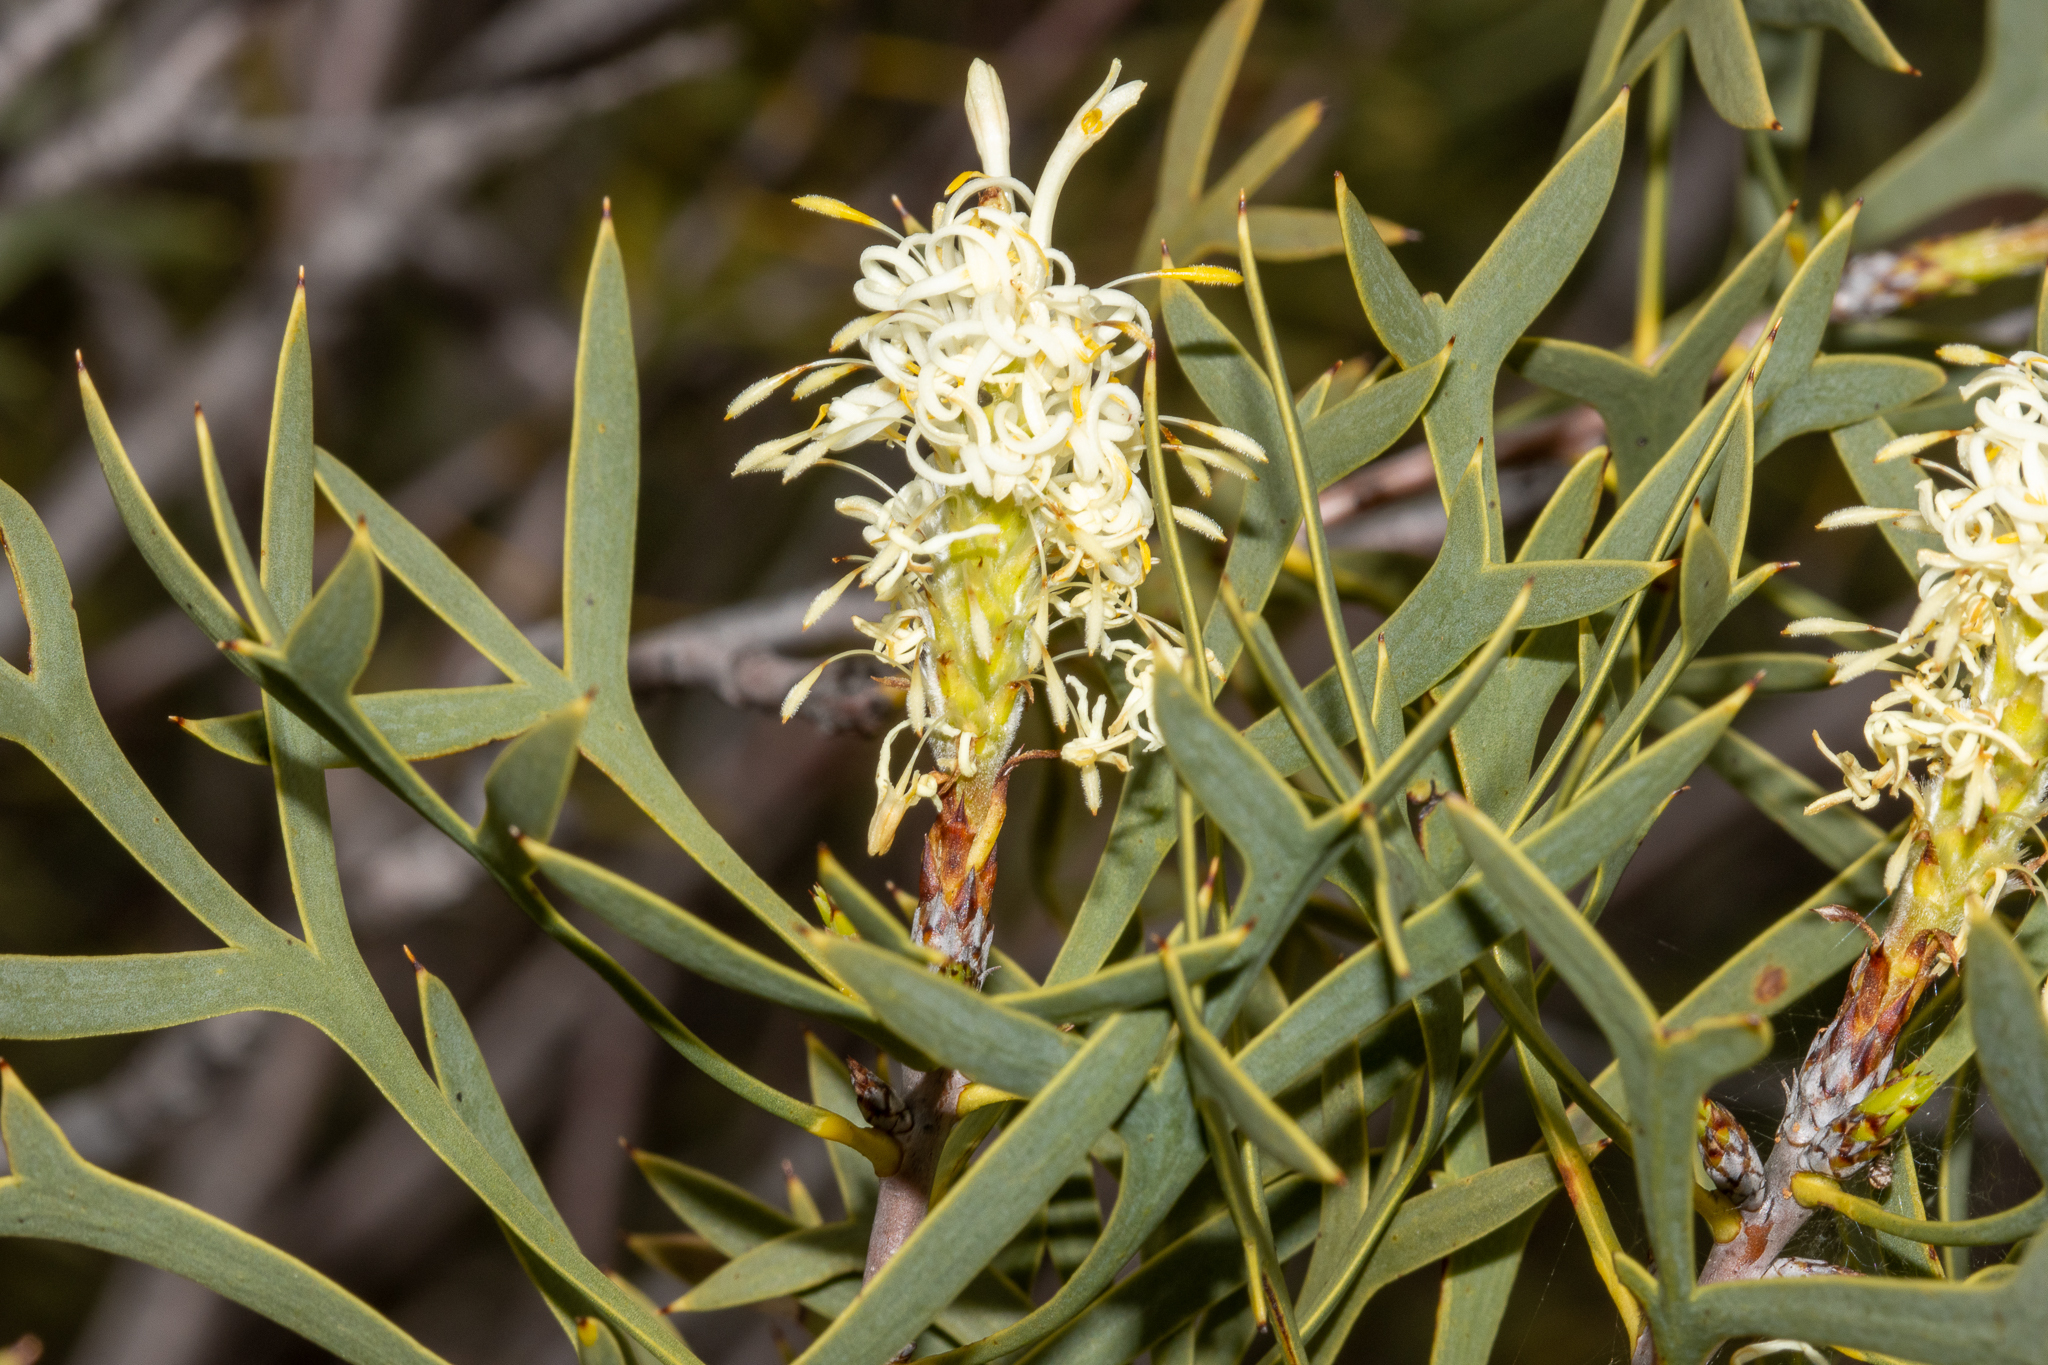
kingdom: Plantae
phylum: Tracheophyta
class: Magnoliopsida
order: Proteales
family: Proteaceae
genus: Petrophile
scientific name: Petrophile shuttleworthiana
